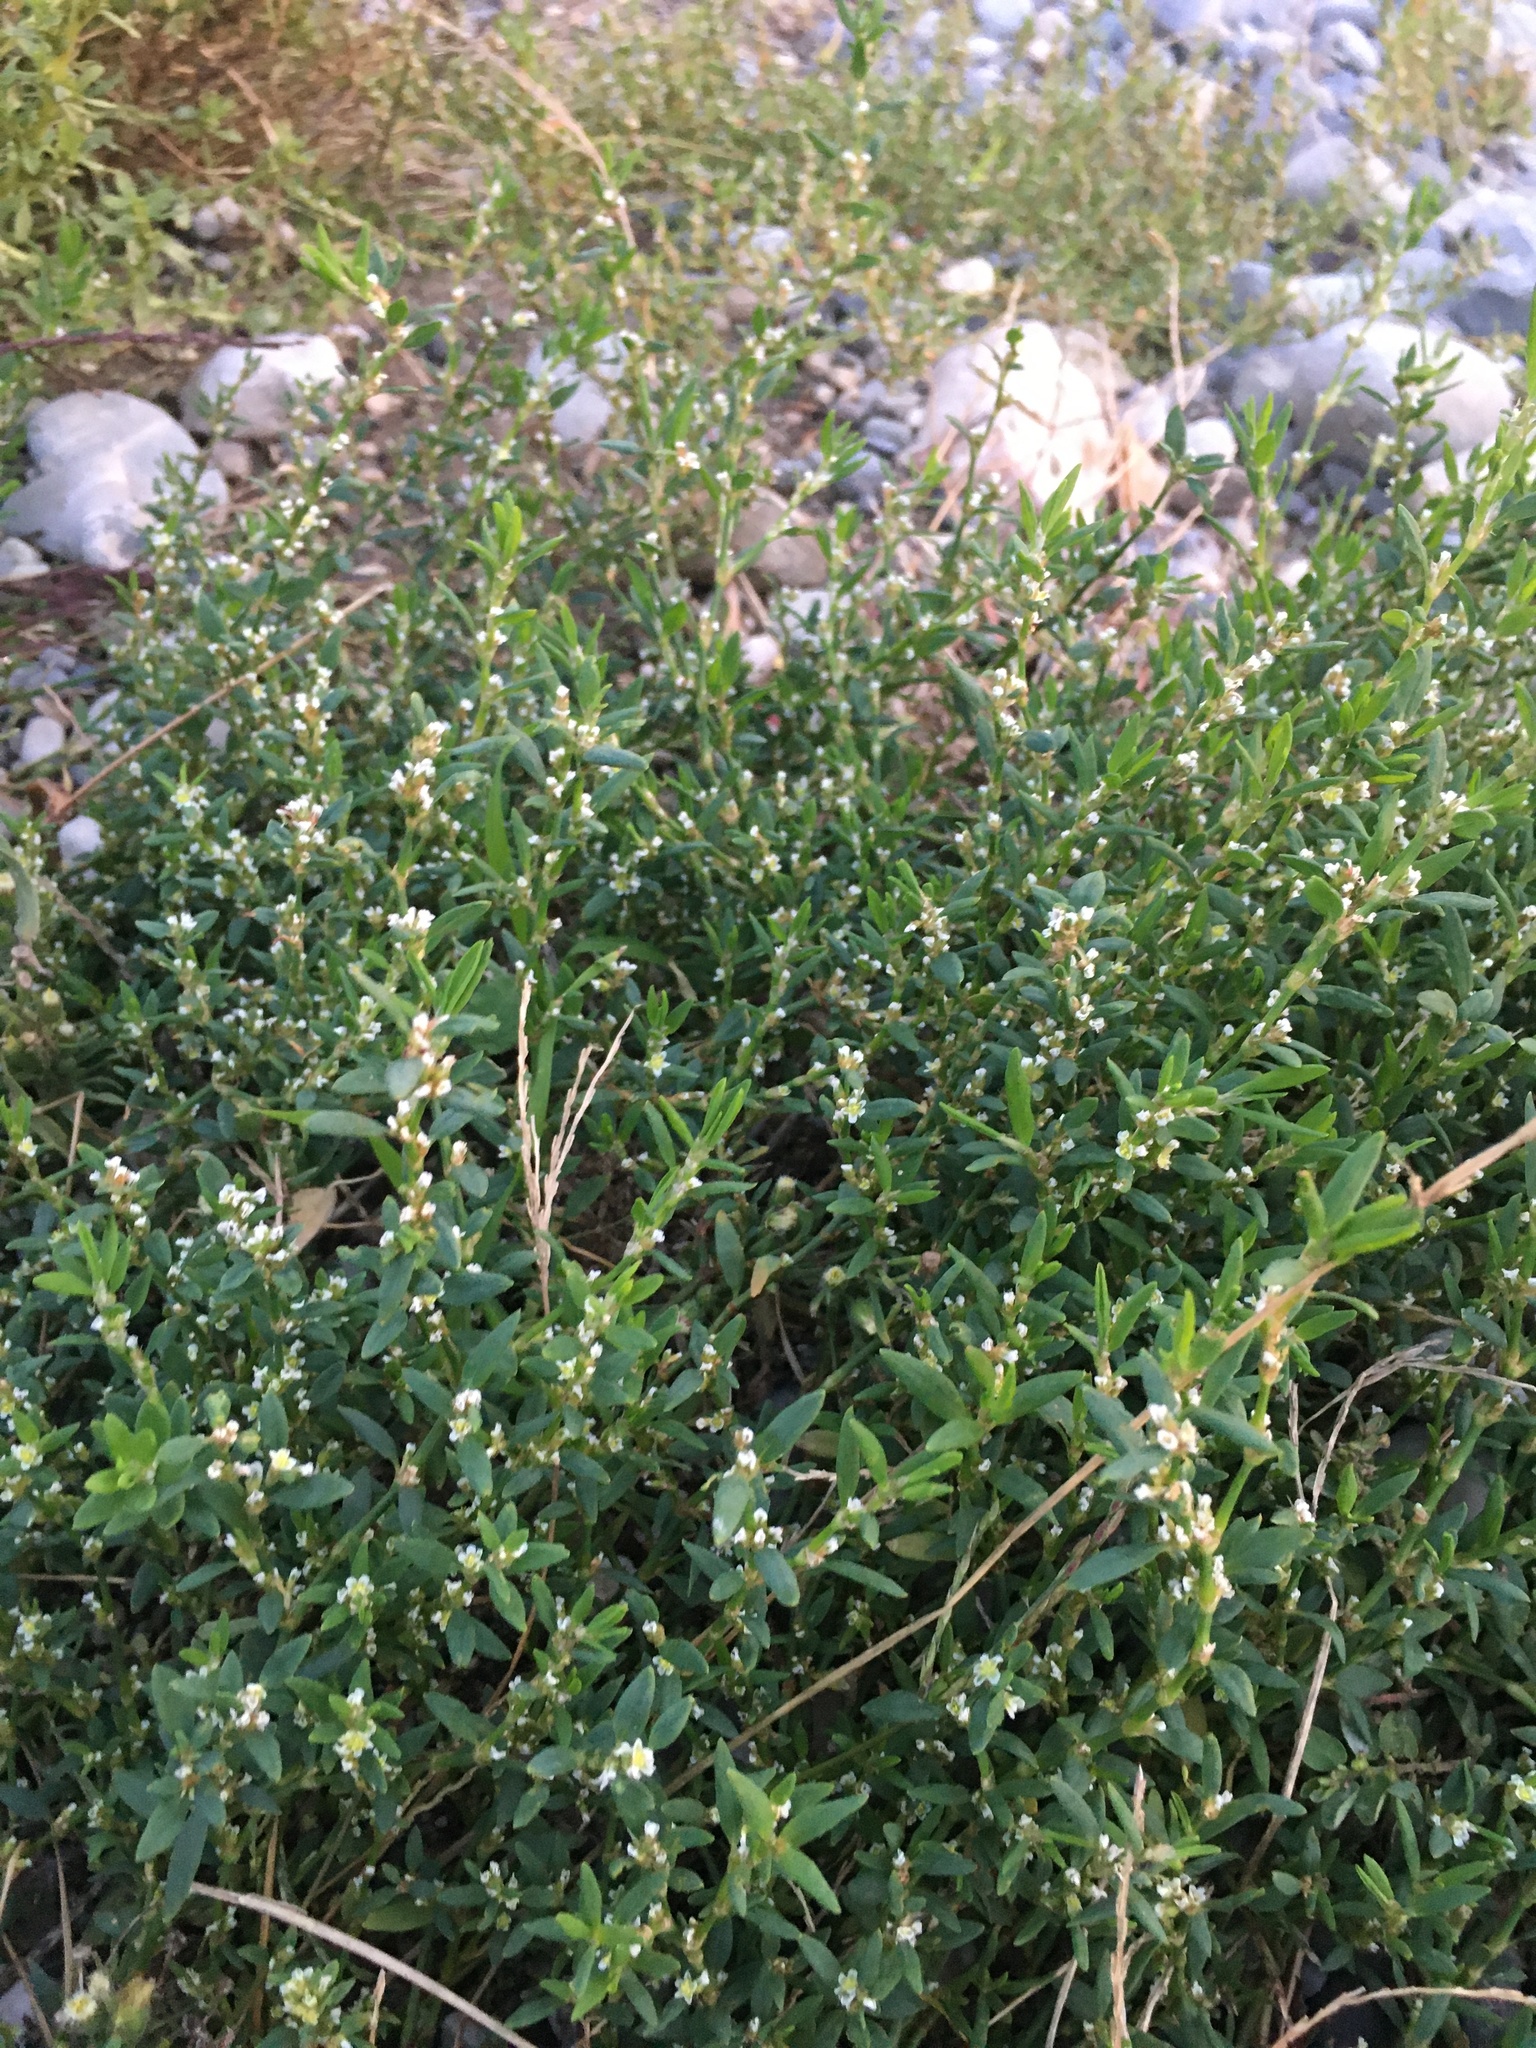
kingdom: Plantae
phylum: Tracheophyta
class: Magnoliopsida
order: Caryophyllales
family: Polygonaceae
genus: Polygonum
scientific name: Polygonum aviculare
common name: Prostrate knotweed
